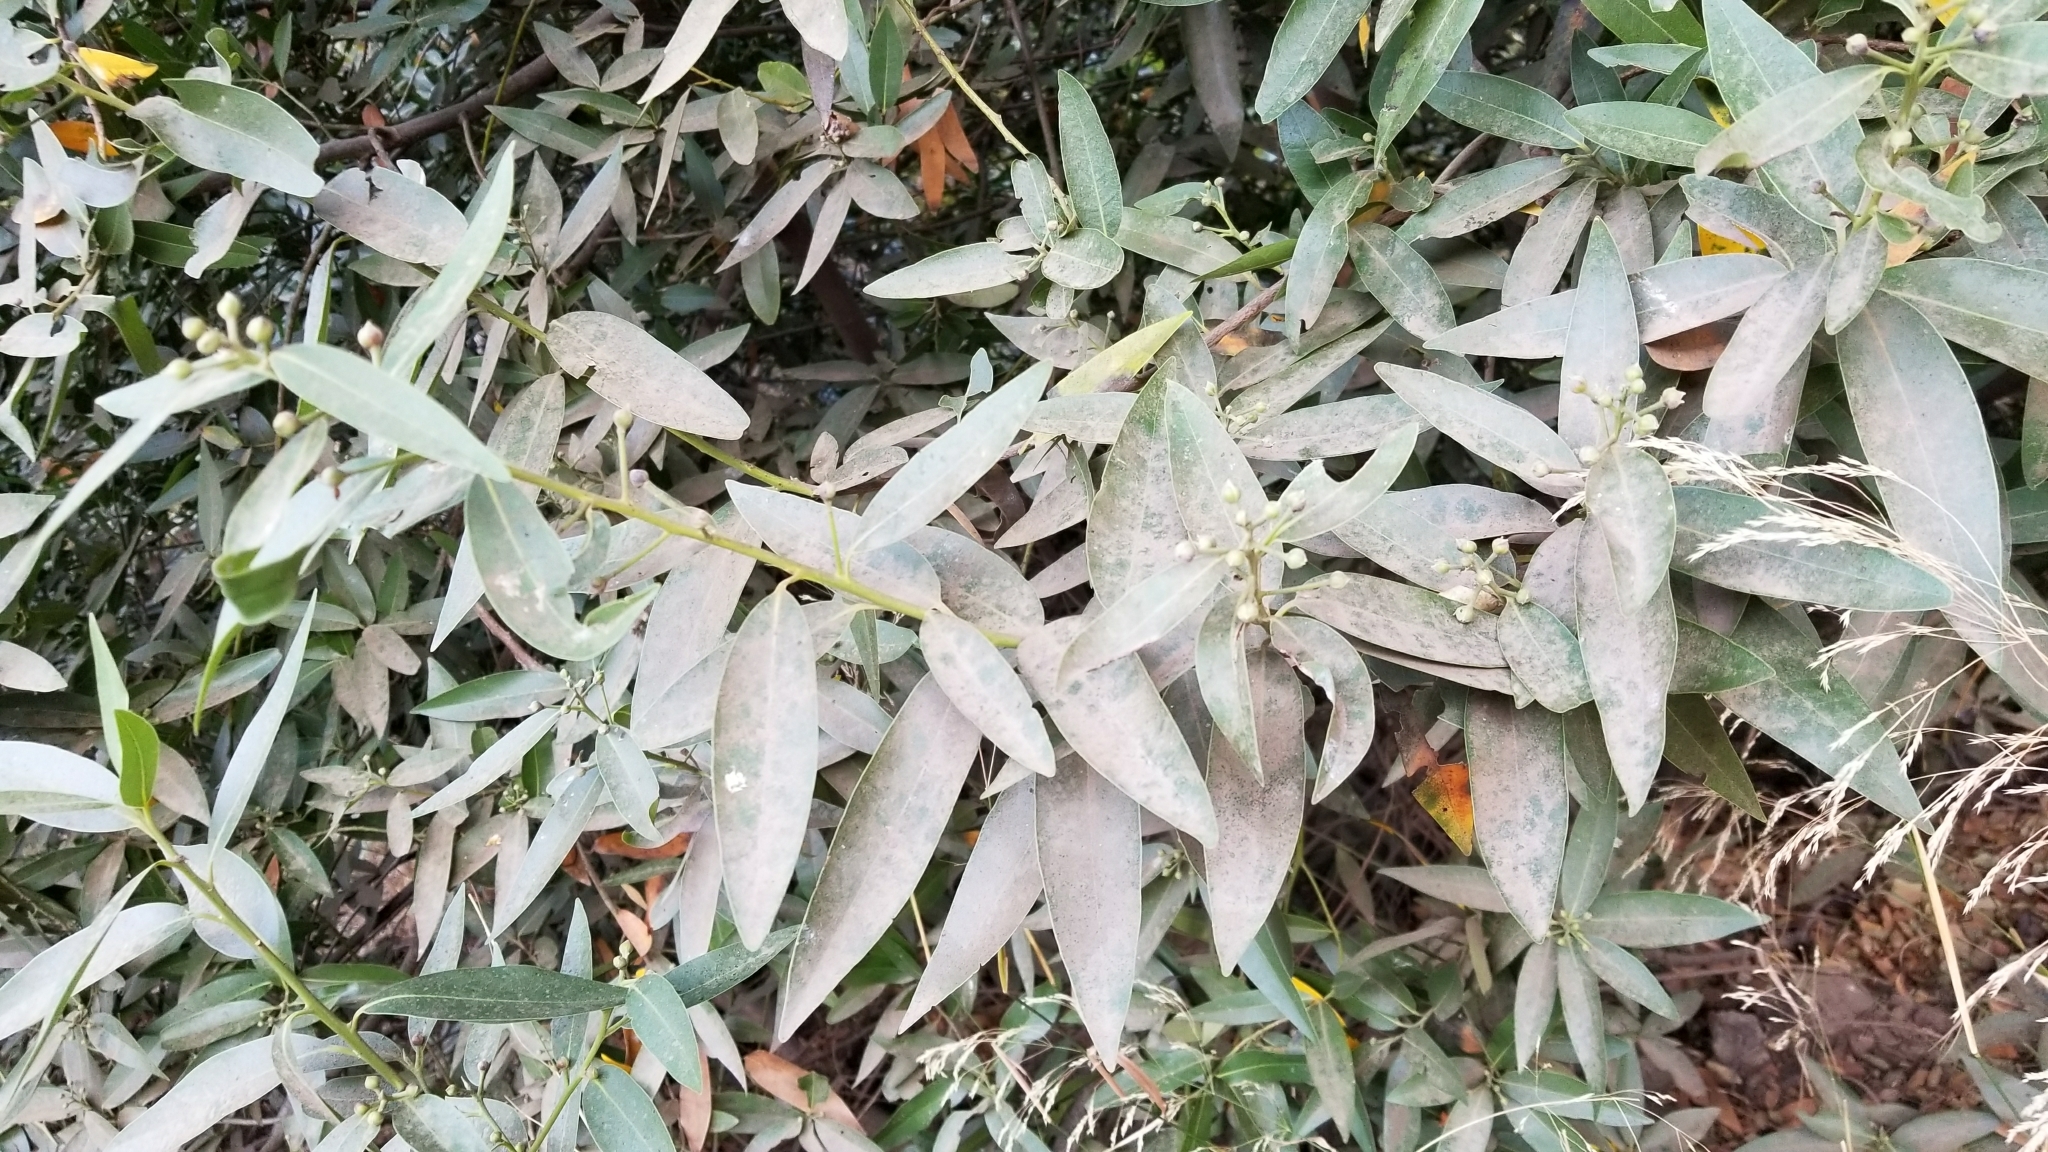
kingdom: Plantae
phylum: Tracheophyta
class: Magnoliopsida
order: Laurales
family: Lauraceae
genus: Umbellularia
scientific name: Umbellularia californica
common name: California bay
